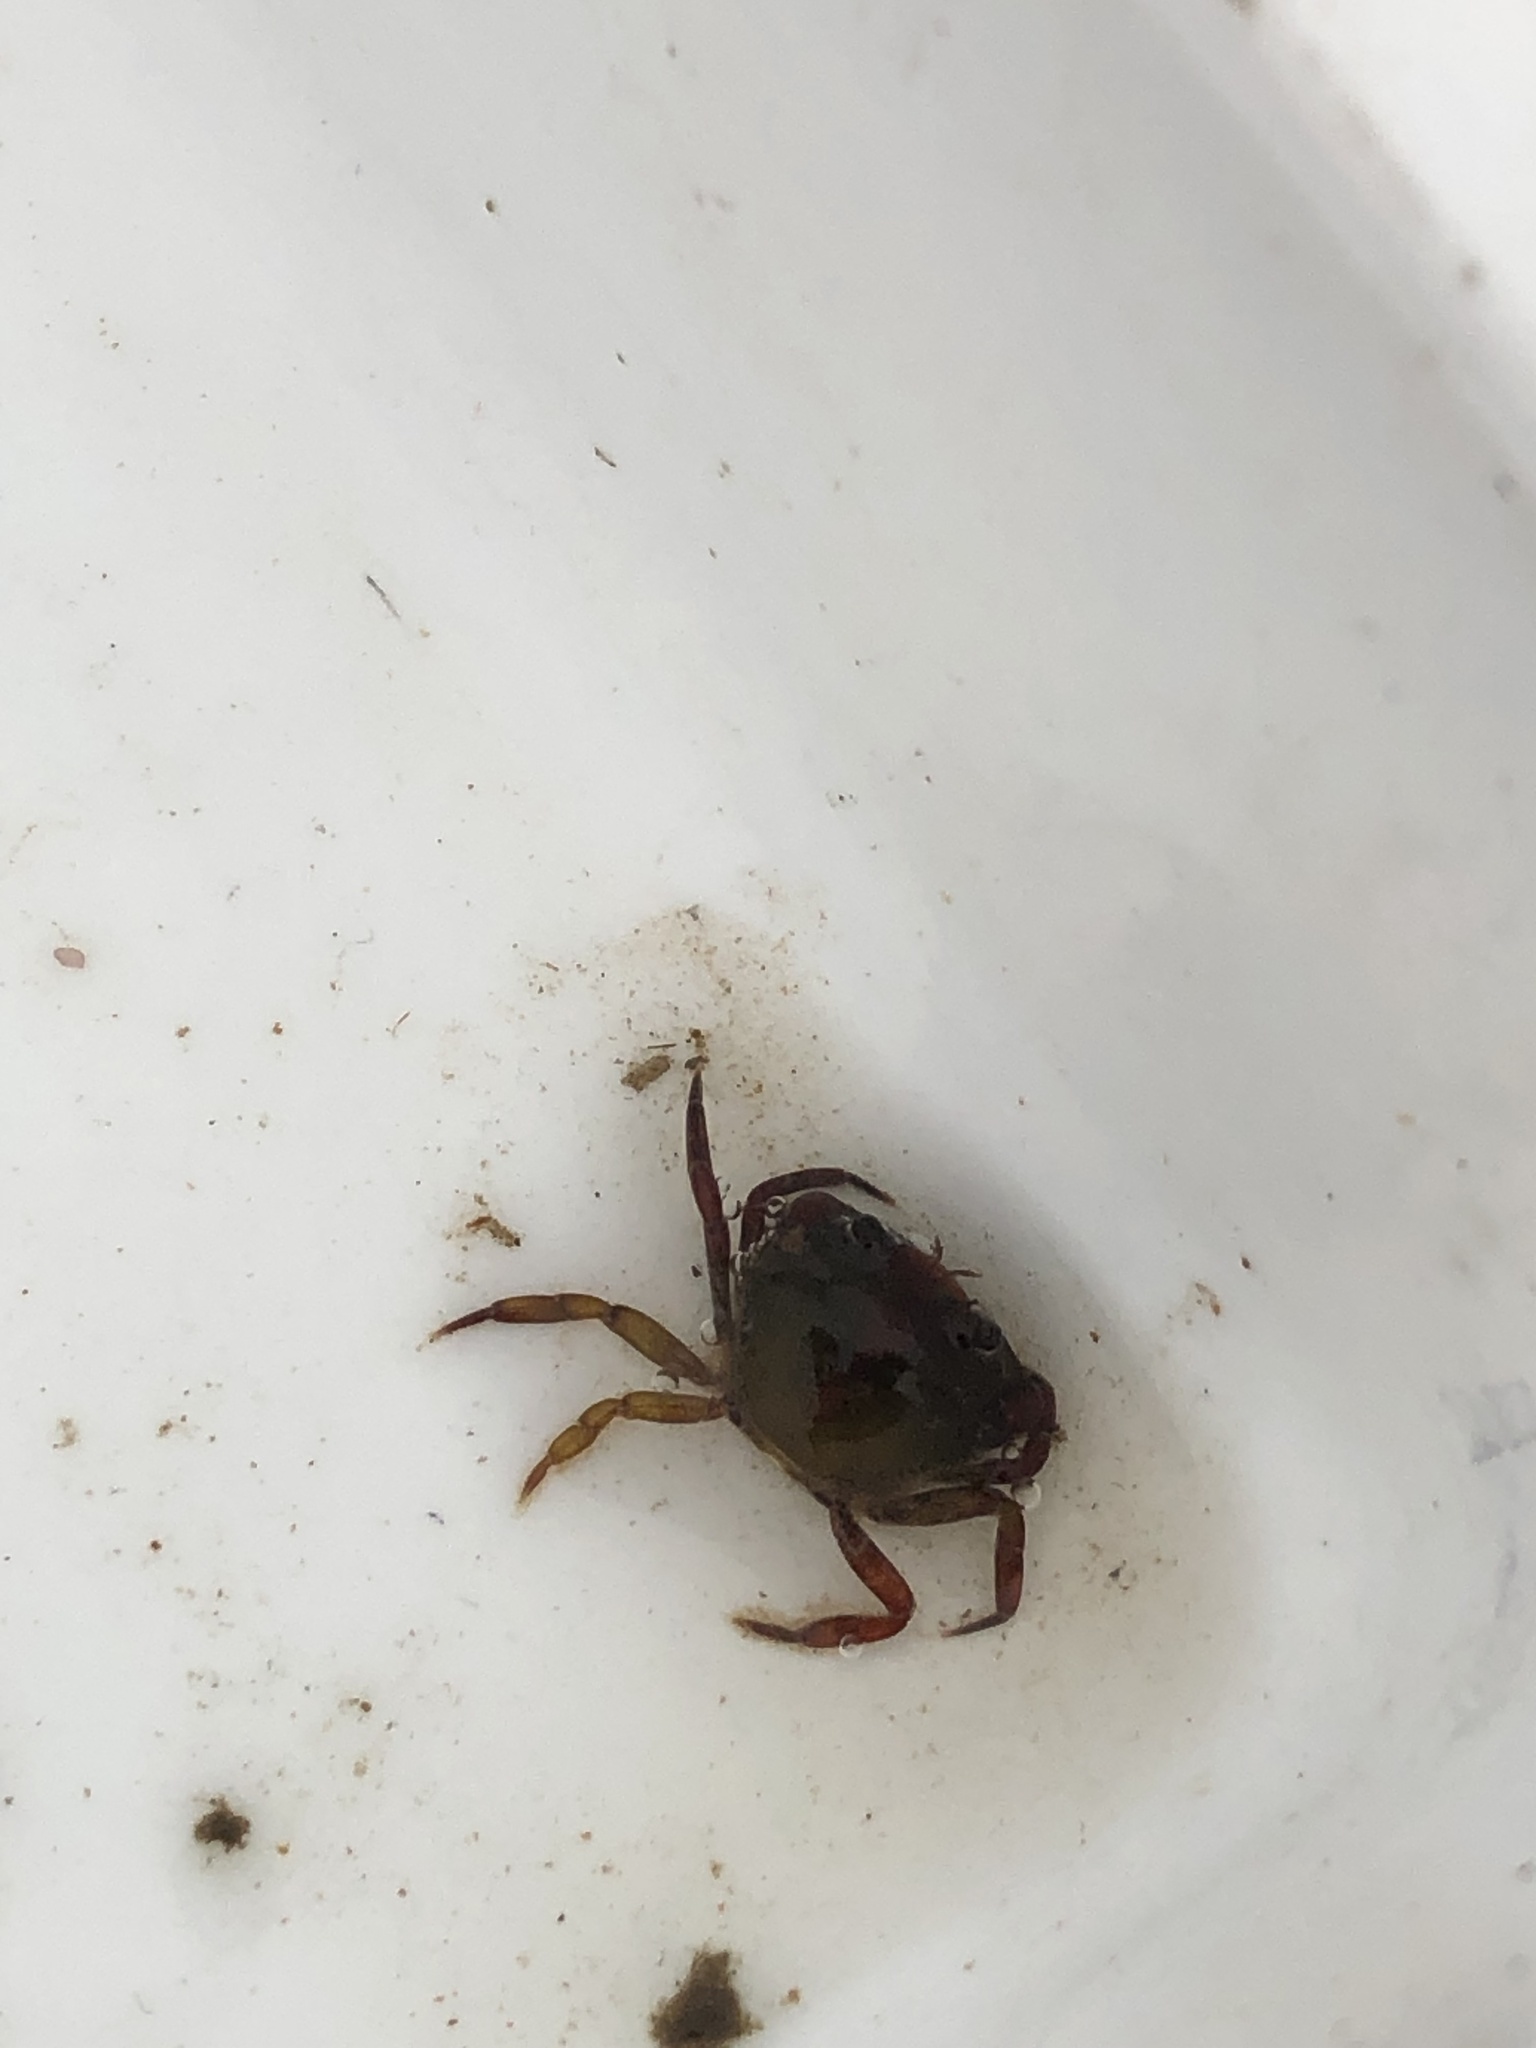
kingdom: Animalia
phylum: Arthropoda
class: Malacostraca
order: Decapoda
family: Carcinidae
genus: Carcinus
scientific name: Carcinus maenas
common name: European green crab
